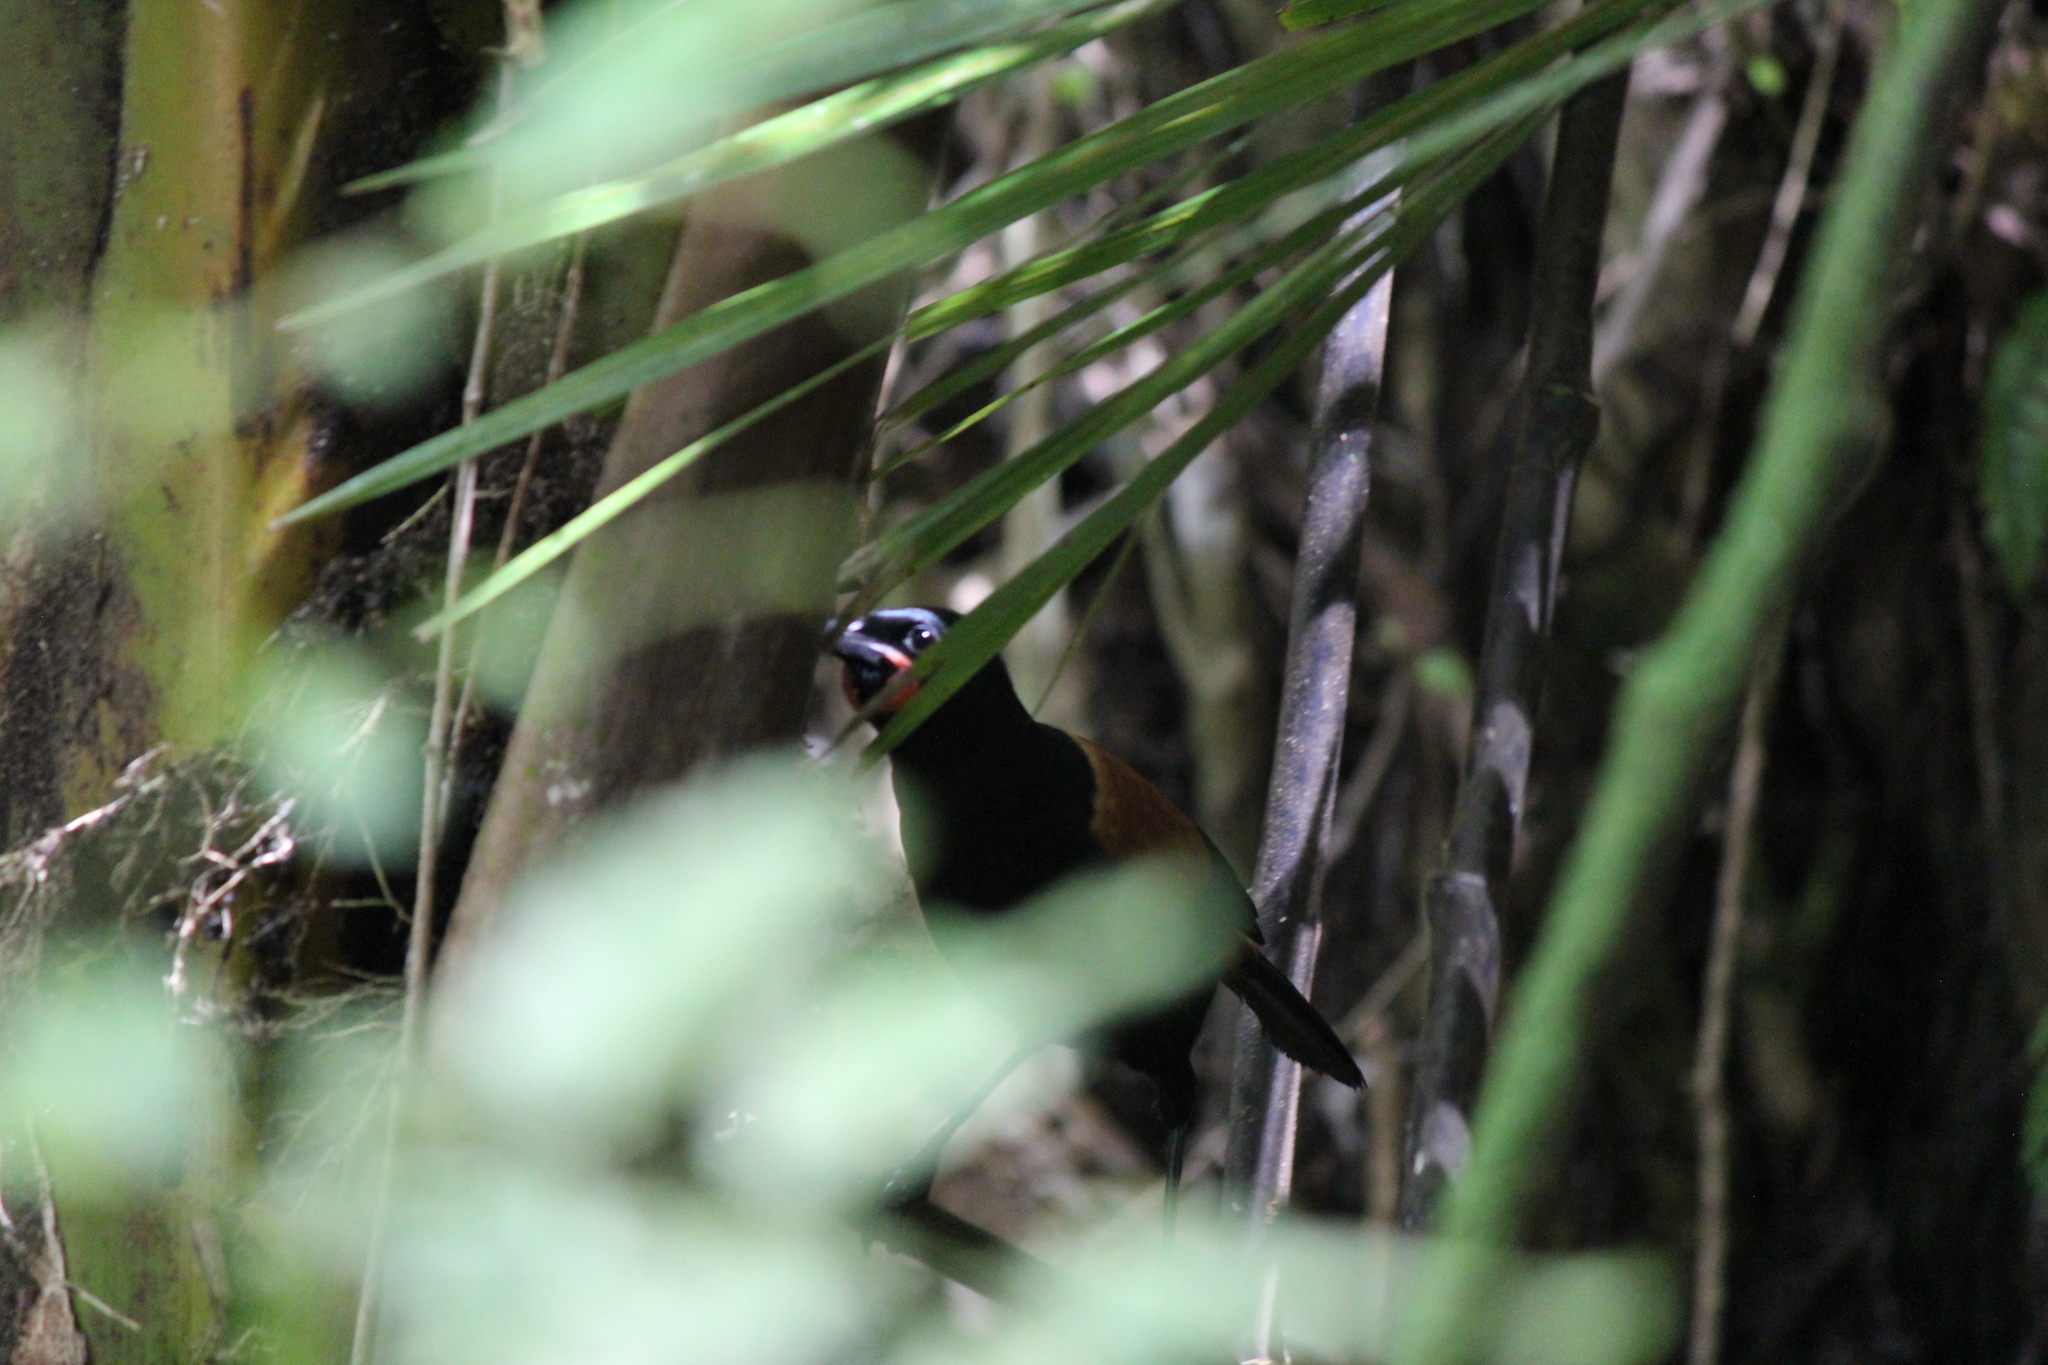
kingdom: Animalia
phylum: Chordata
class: Aves
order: Passeriformes
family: Callaeatidae
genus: Philesturnus
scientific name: Philesturnus carunculatus
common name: South island saddleback
